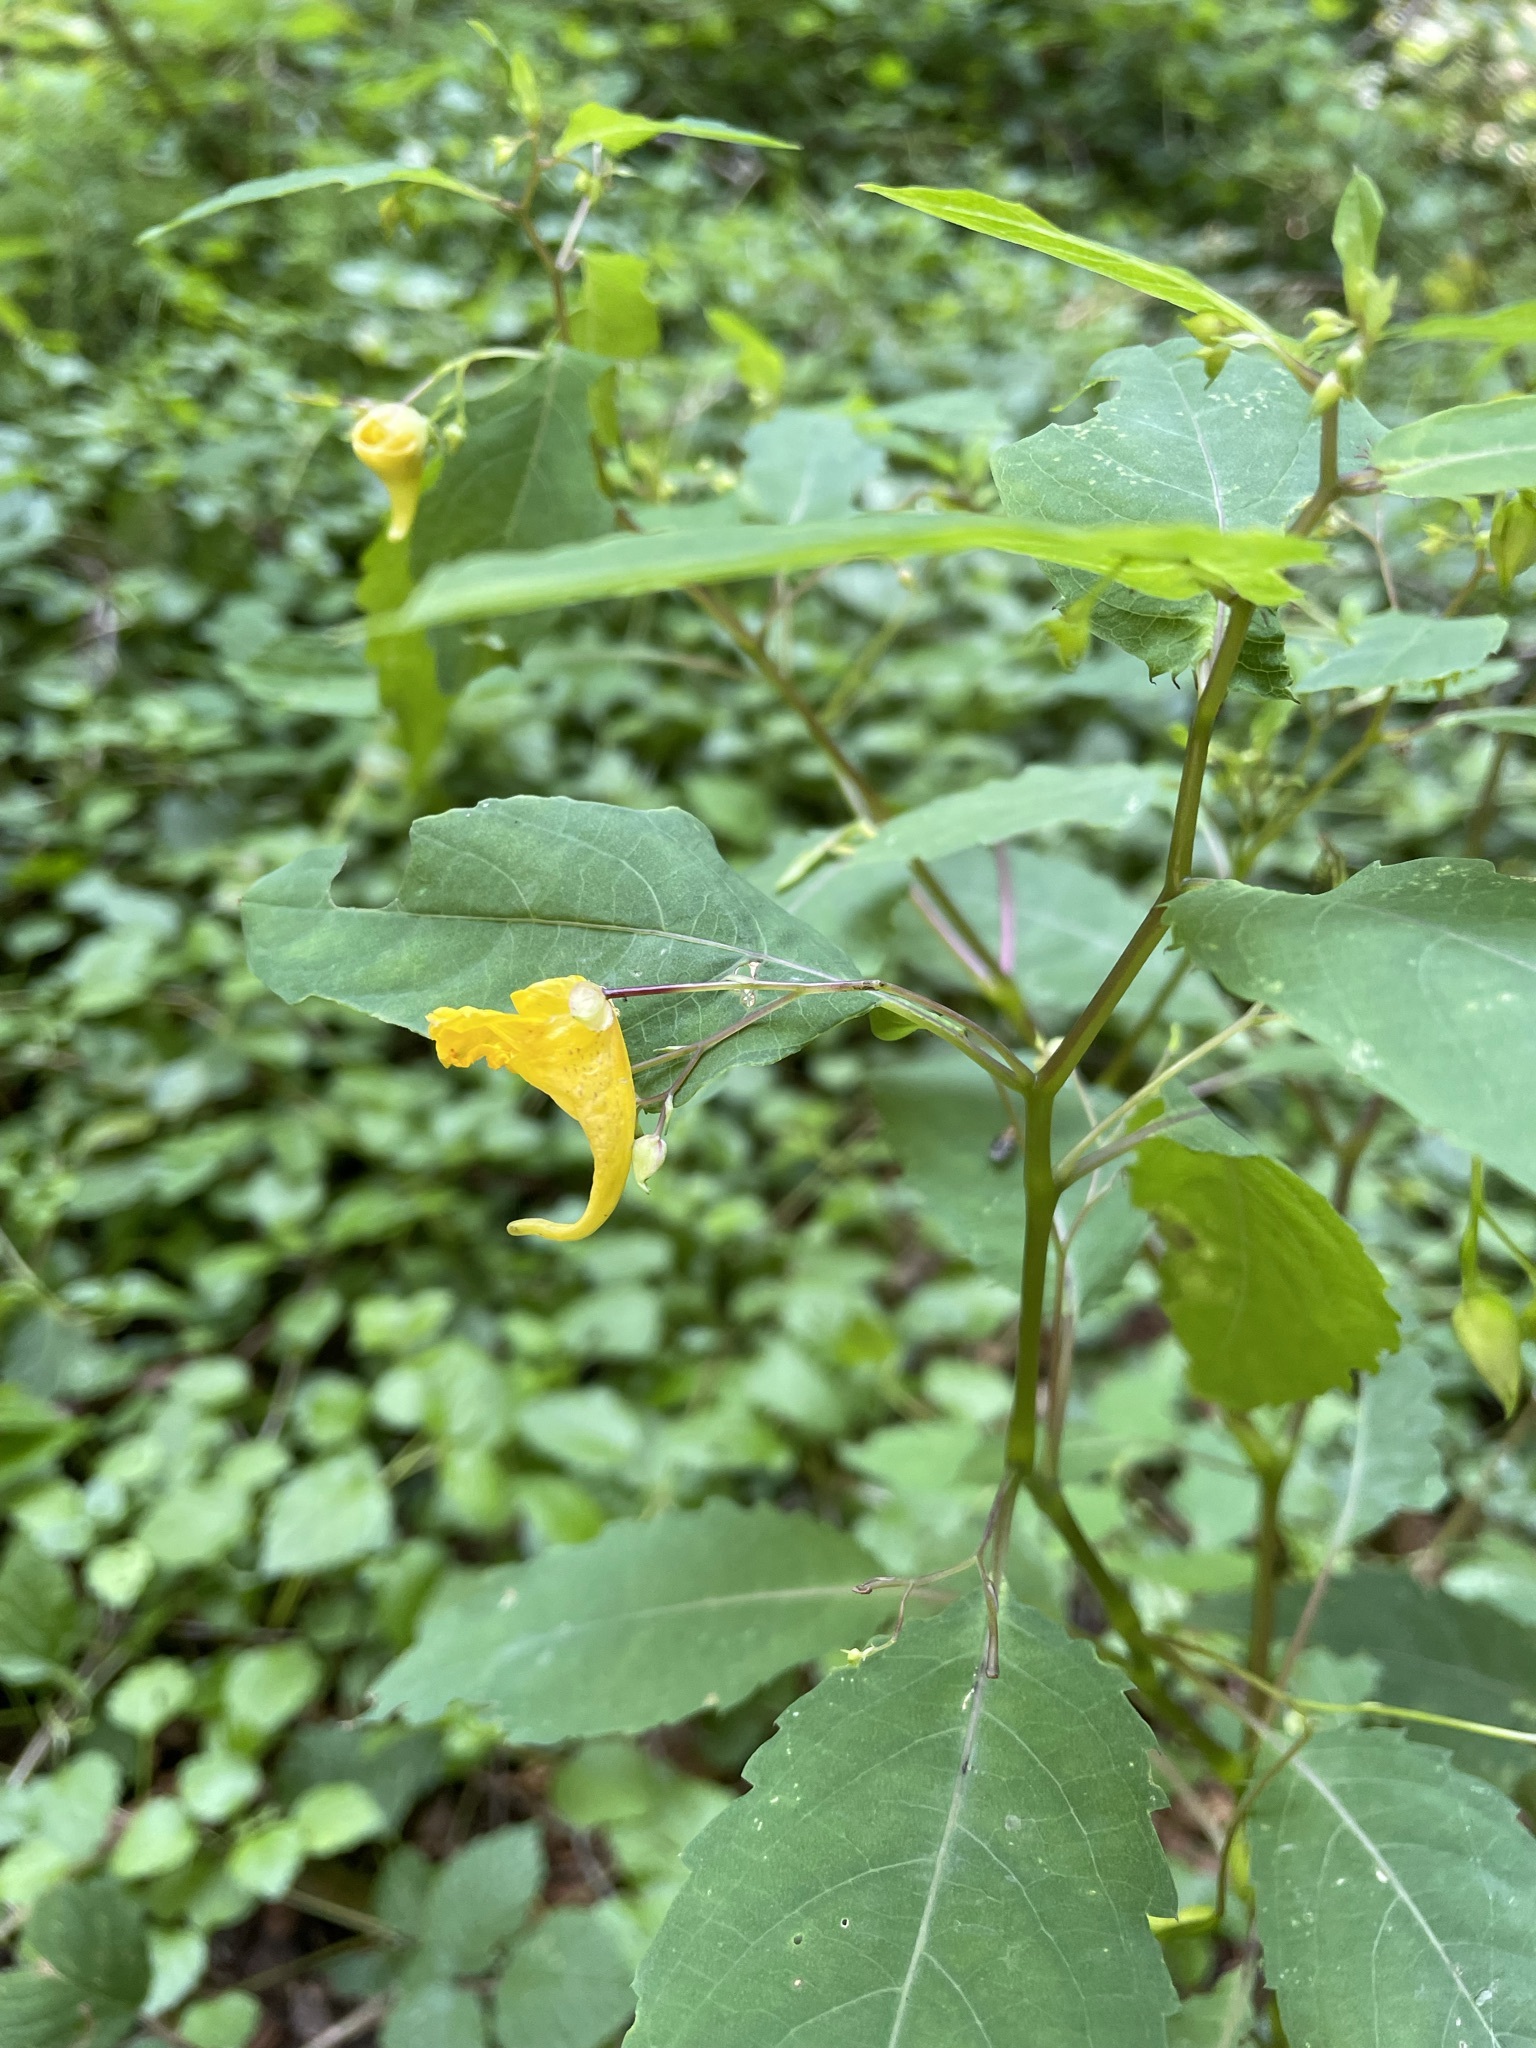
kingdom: Plantae
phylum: Tracheophyta
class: Magnoliopsida
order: Ericales
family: Balsaminaceae
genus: Impatiens
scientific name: Impatiens noli-tangere
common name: Touch-me-not balsam
